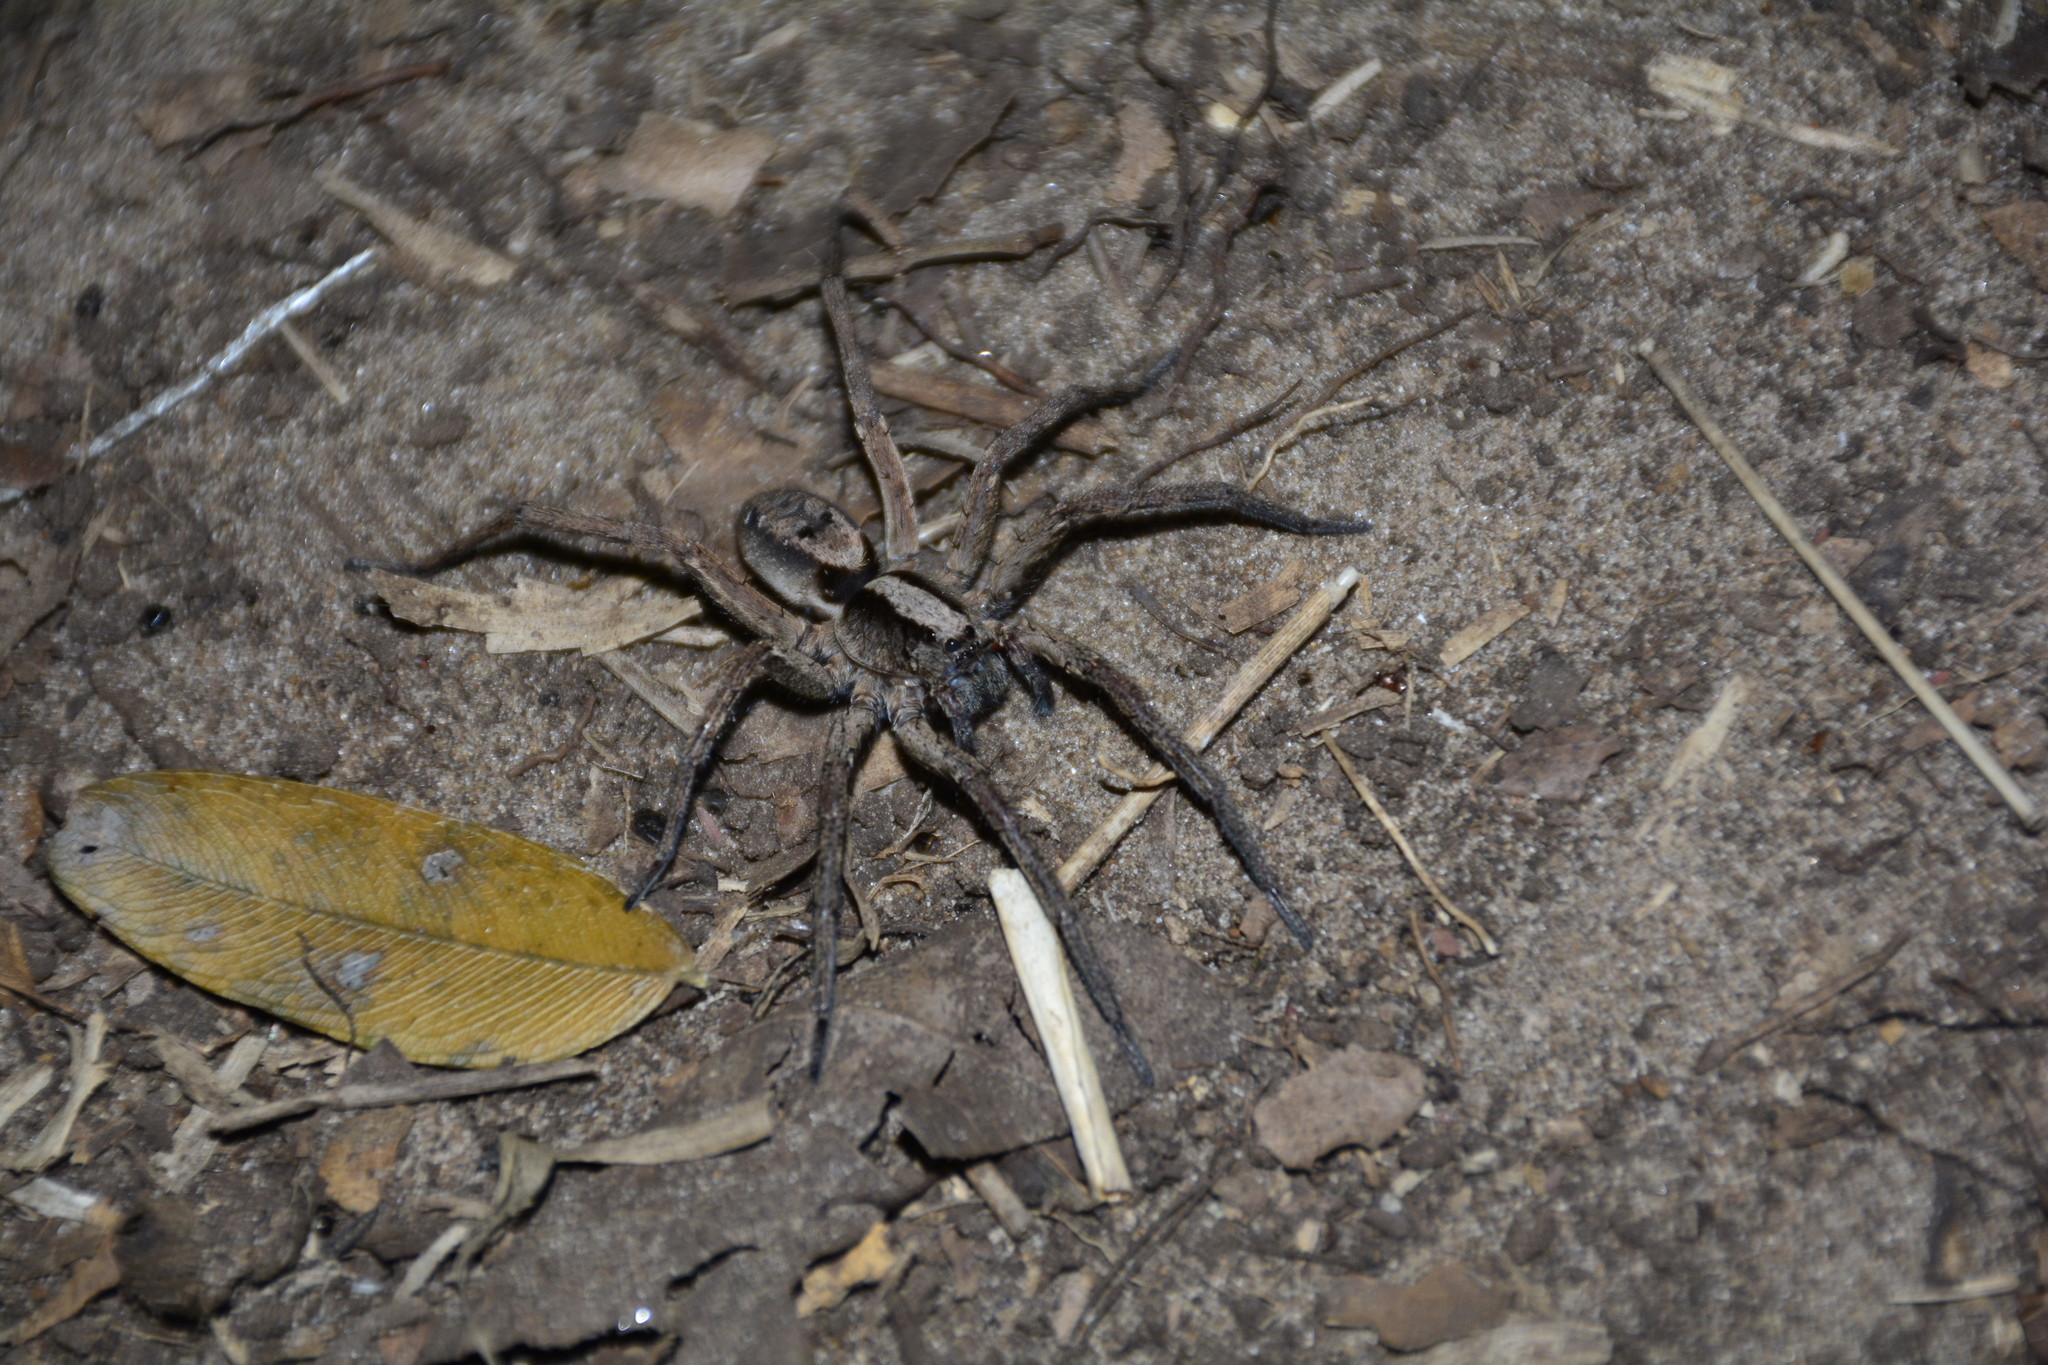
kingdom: Animalia
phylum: Arthropoda
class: Arachnida
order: Araneae
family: Lycosidae
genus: Hogna
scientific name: Hogna gumia
